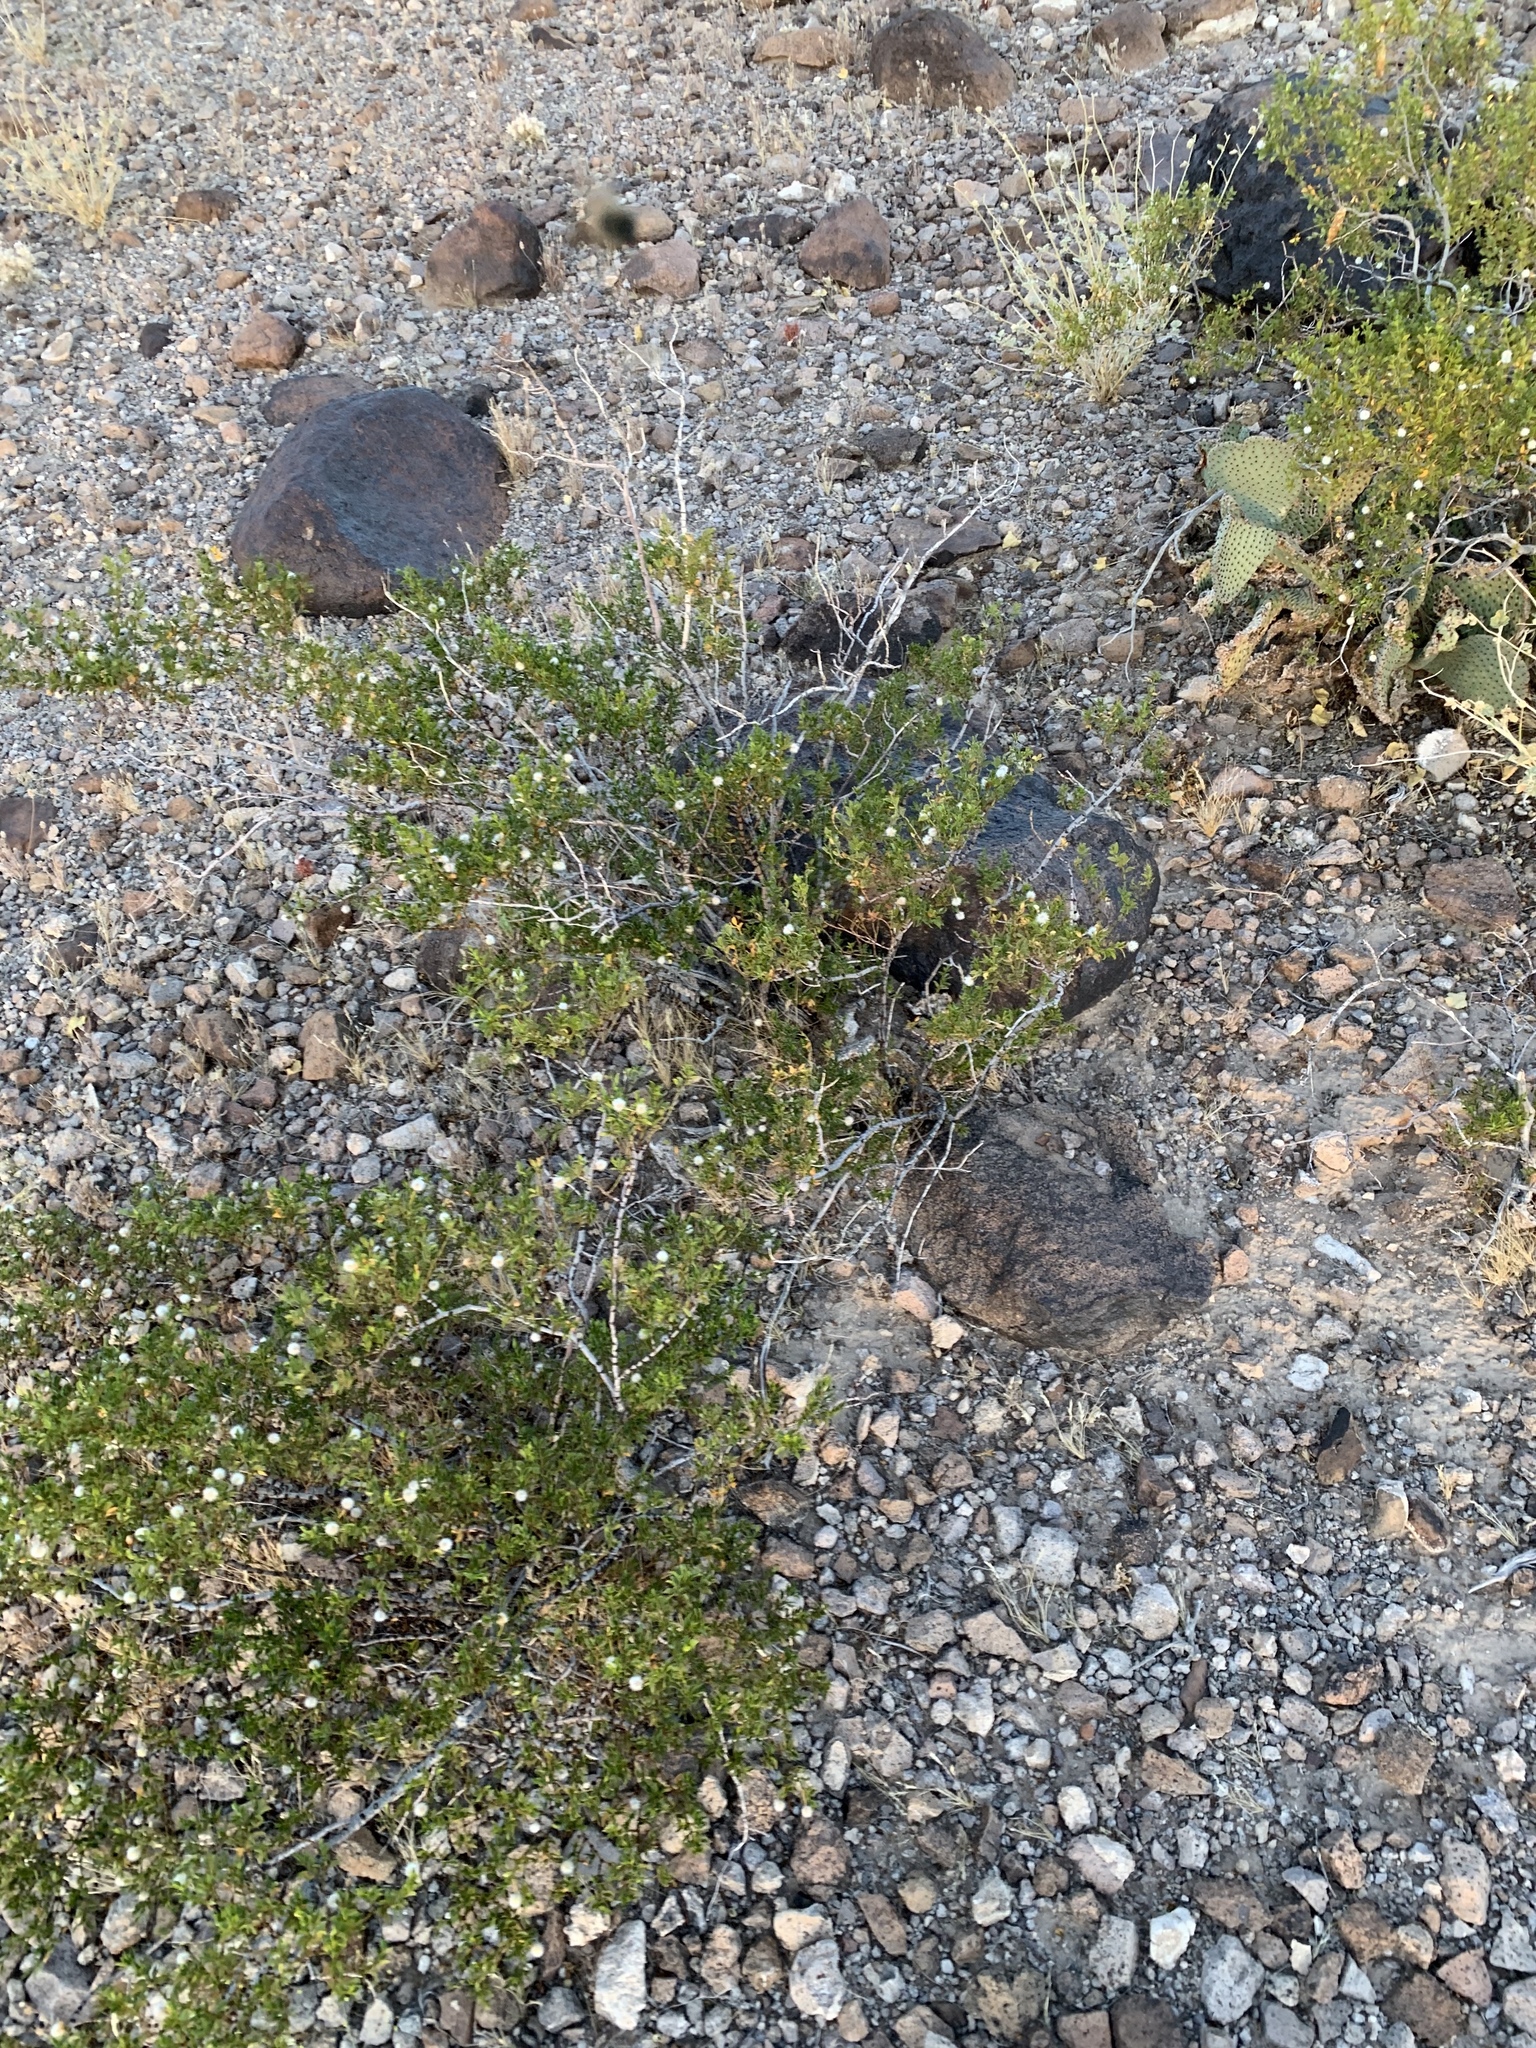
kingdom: Plantae
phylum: Tracheophyta
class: Magnoliopsida
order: Zygophyllales
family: Zygophyllaceae
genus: Larrea
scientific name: Larrea tridentata
